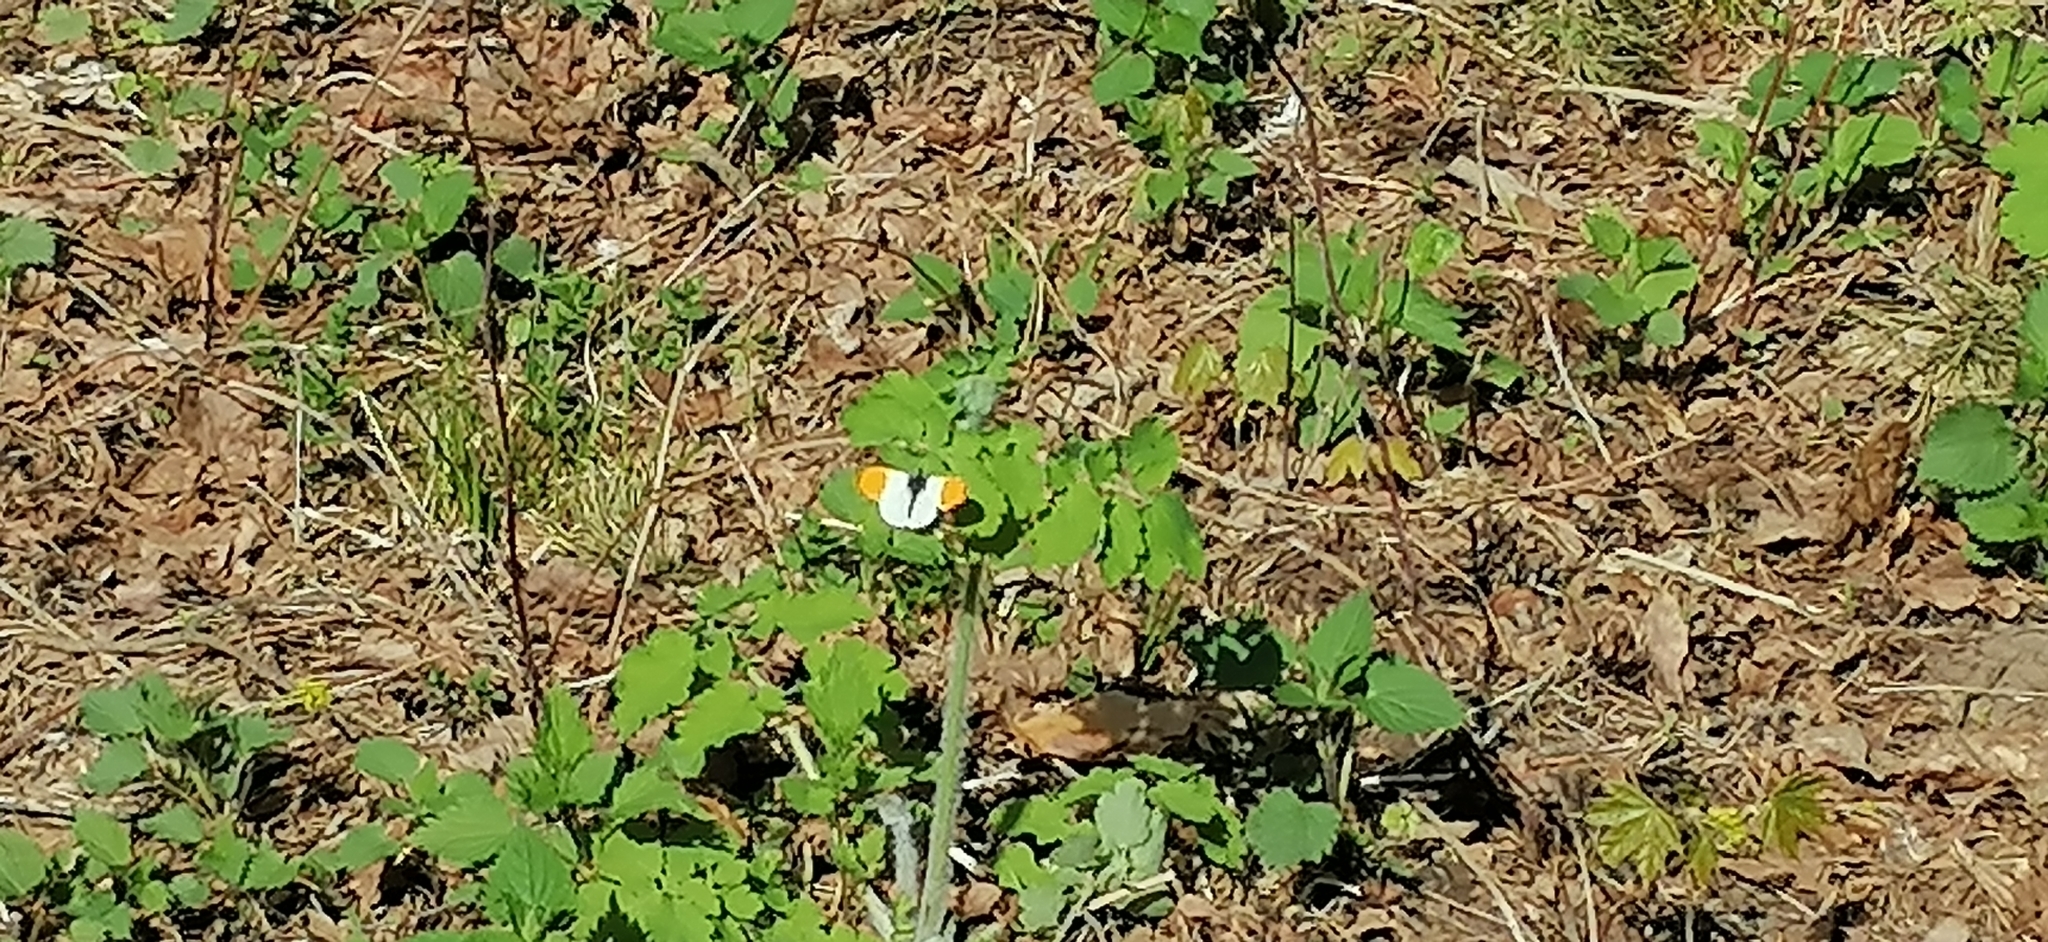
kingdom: Animalia
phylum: Arthropoda
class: Insecta
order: Lepidoptera
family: Pieridae
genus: Anthocharis
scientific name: Anthocharis cardamines
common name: Orange-tip
